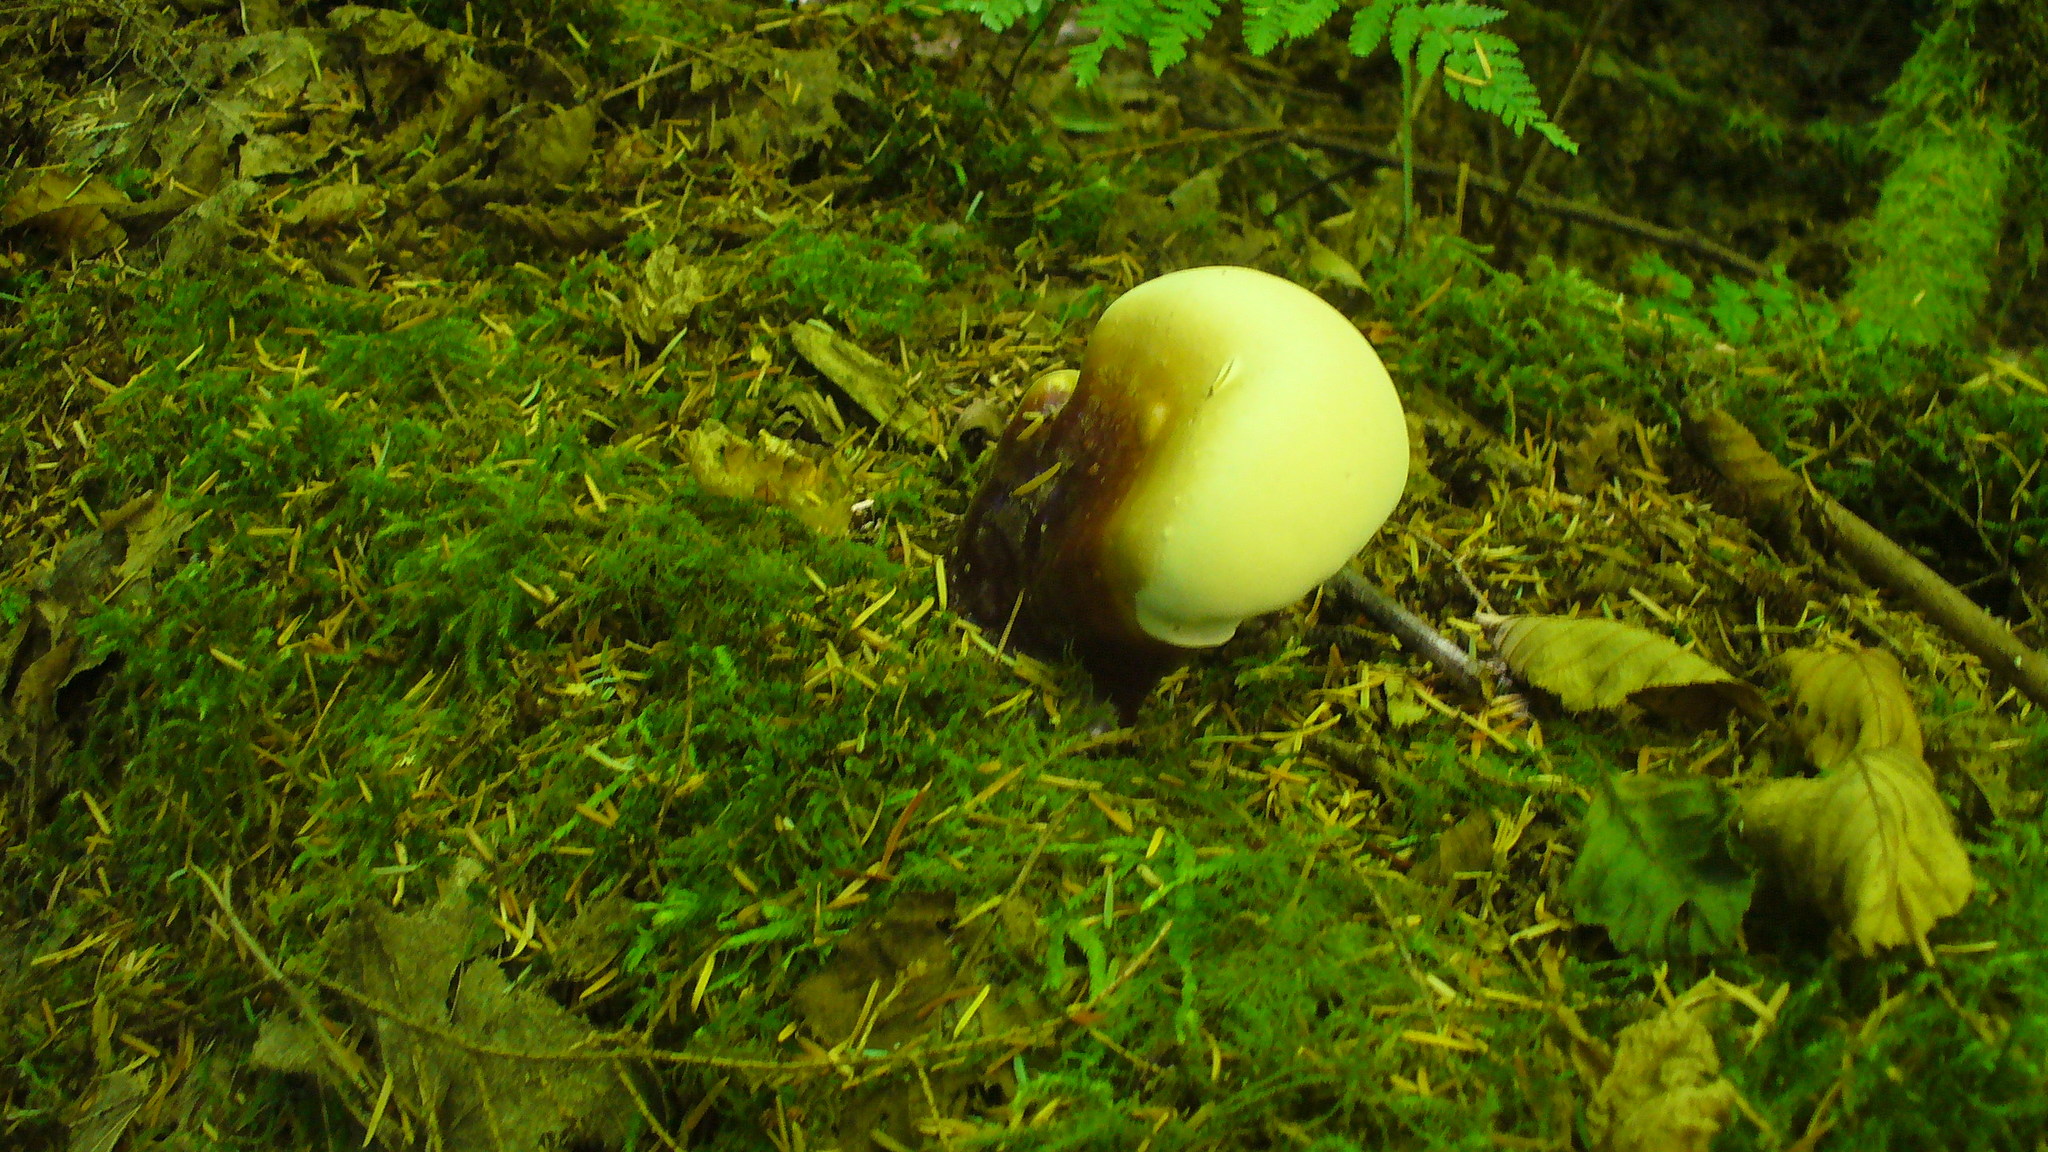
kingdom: Fungi
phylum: Basidiomycota
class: Agaricomycetes
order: Polyporales
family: Polyporaceae
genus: Ganoderma
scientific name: Ganoderma oregonense
